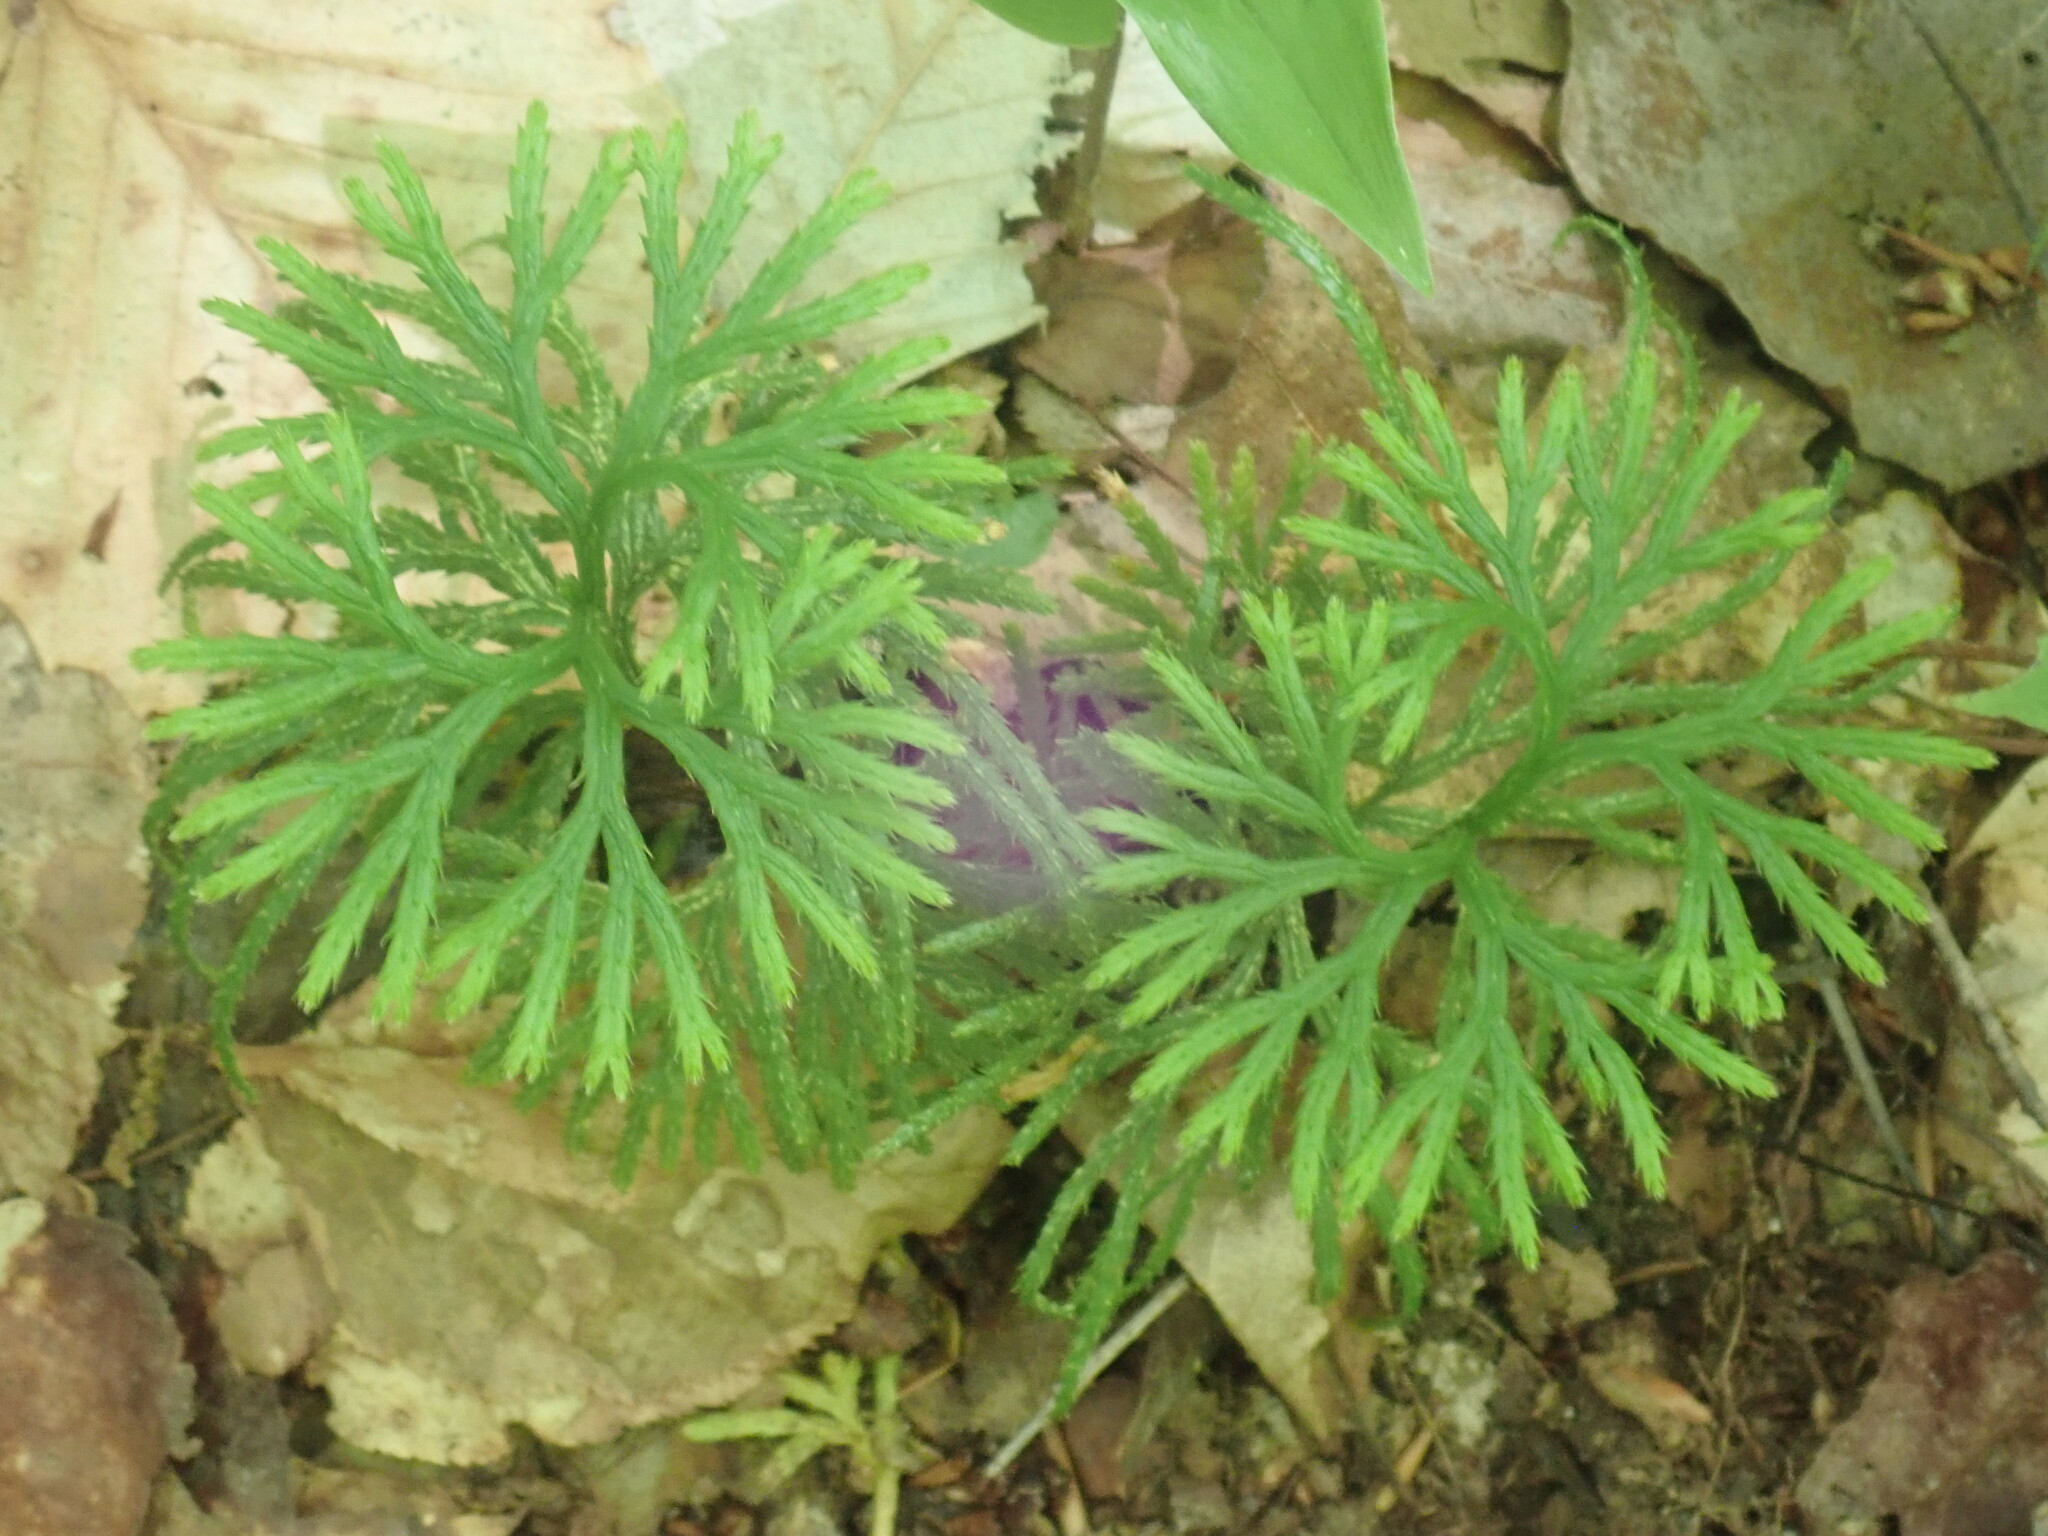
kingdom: Plantae
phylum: Tracheophyta
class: Lycopodiopsida
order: Lycopodiales
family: Lycopodiaceae
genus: Diphasiastrum
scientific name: Diphasiastrum digitatum
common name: Southern running-pine
